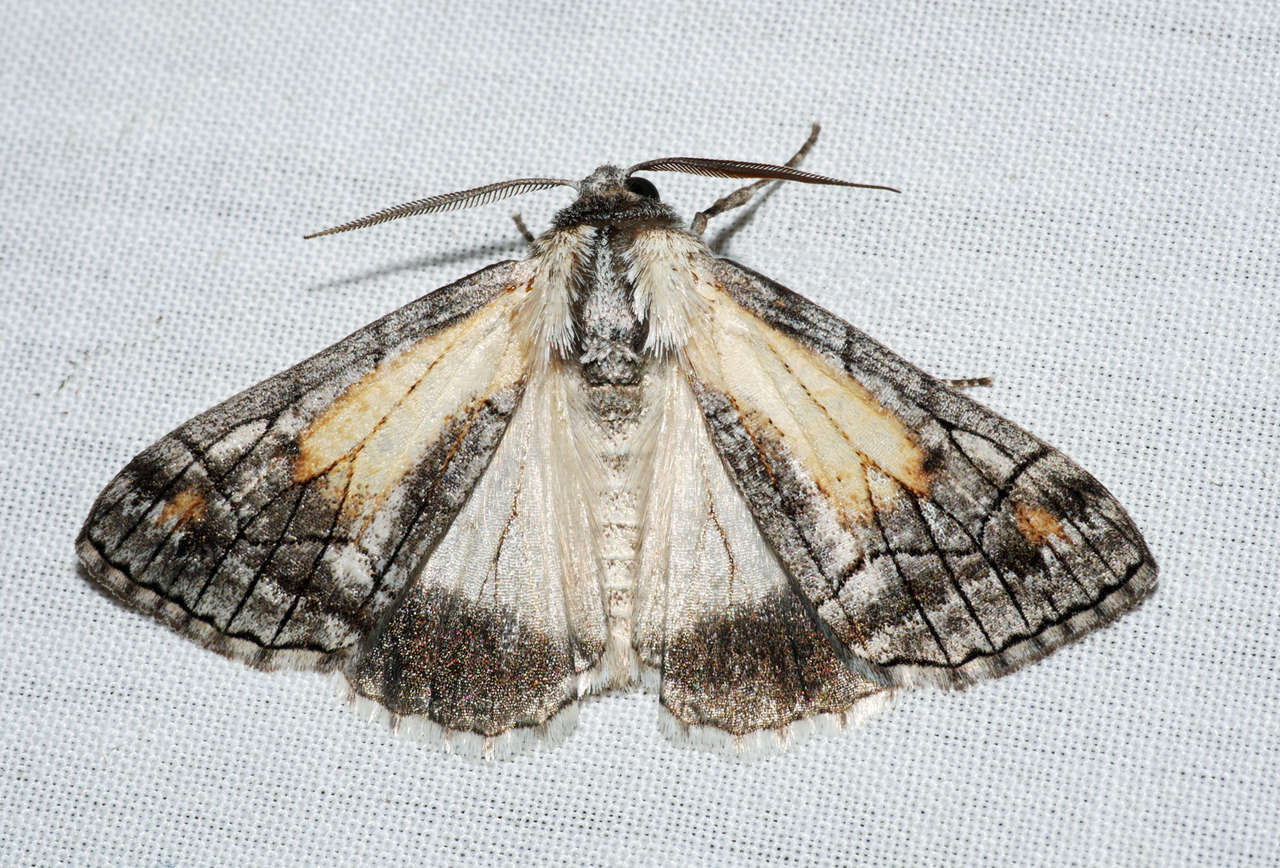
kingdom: Animalia
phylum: Arthropoda
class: Insecta
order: Lepidoptera
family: Geometridae
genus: Stibaractis
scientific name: Stibaractis melanotoxa
